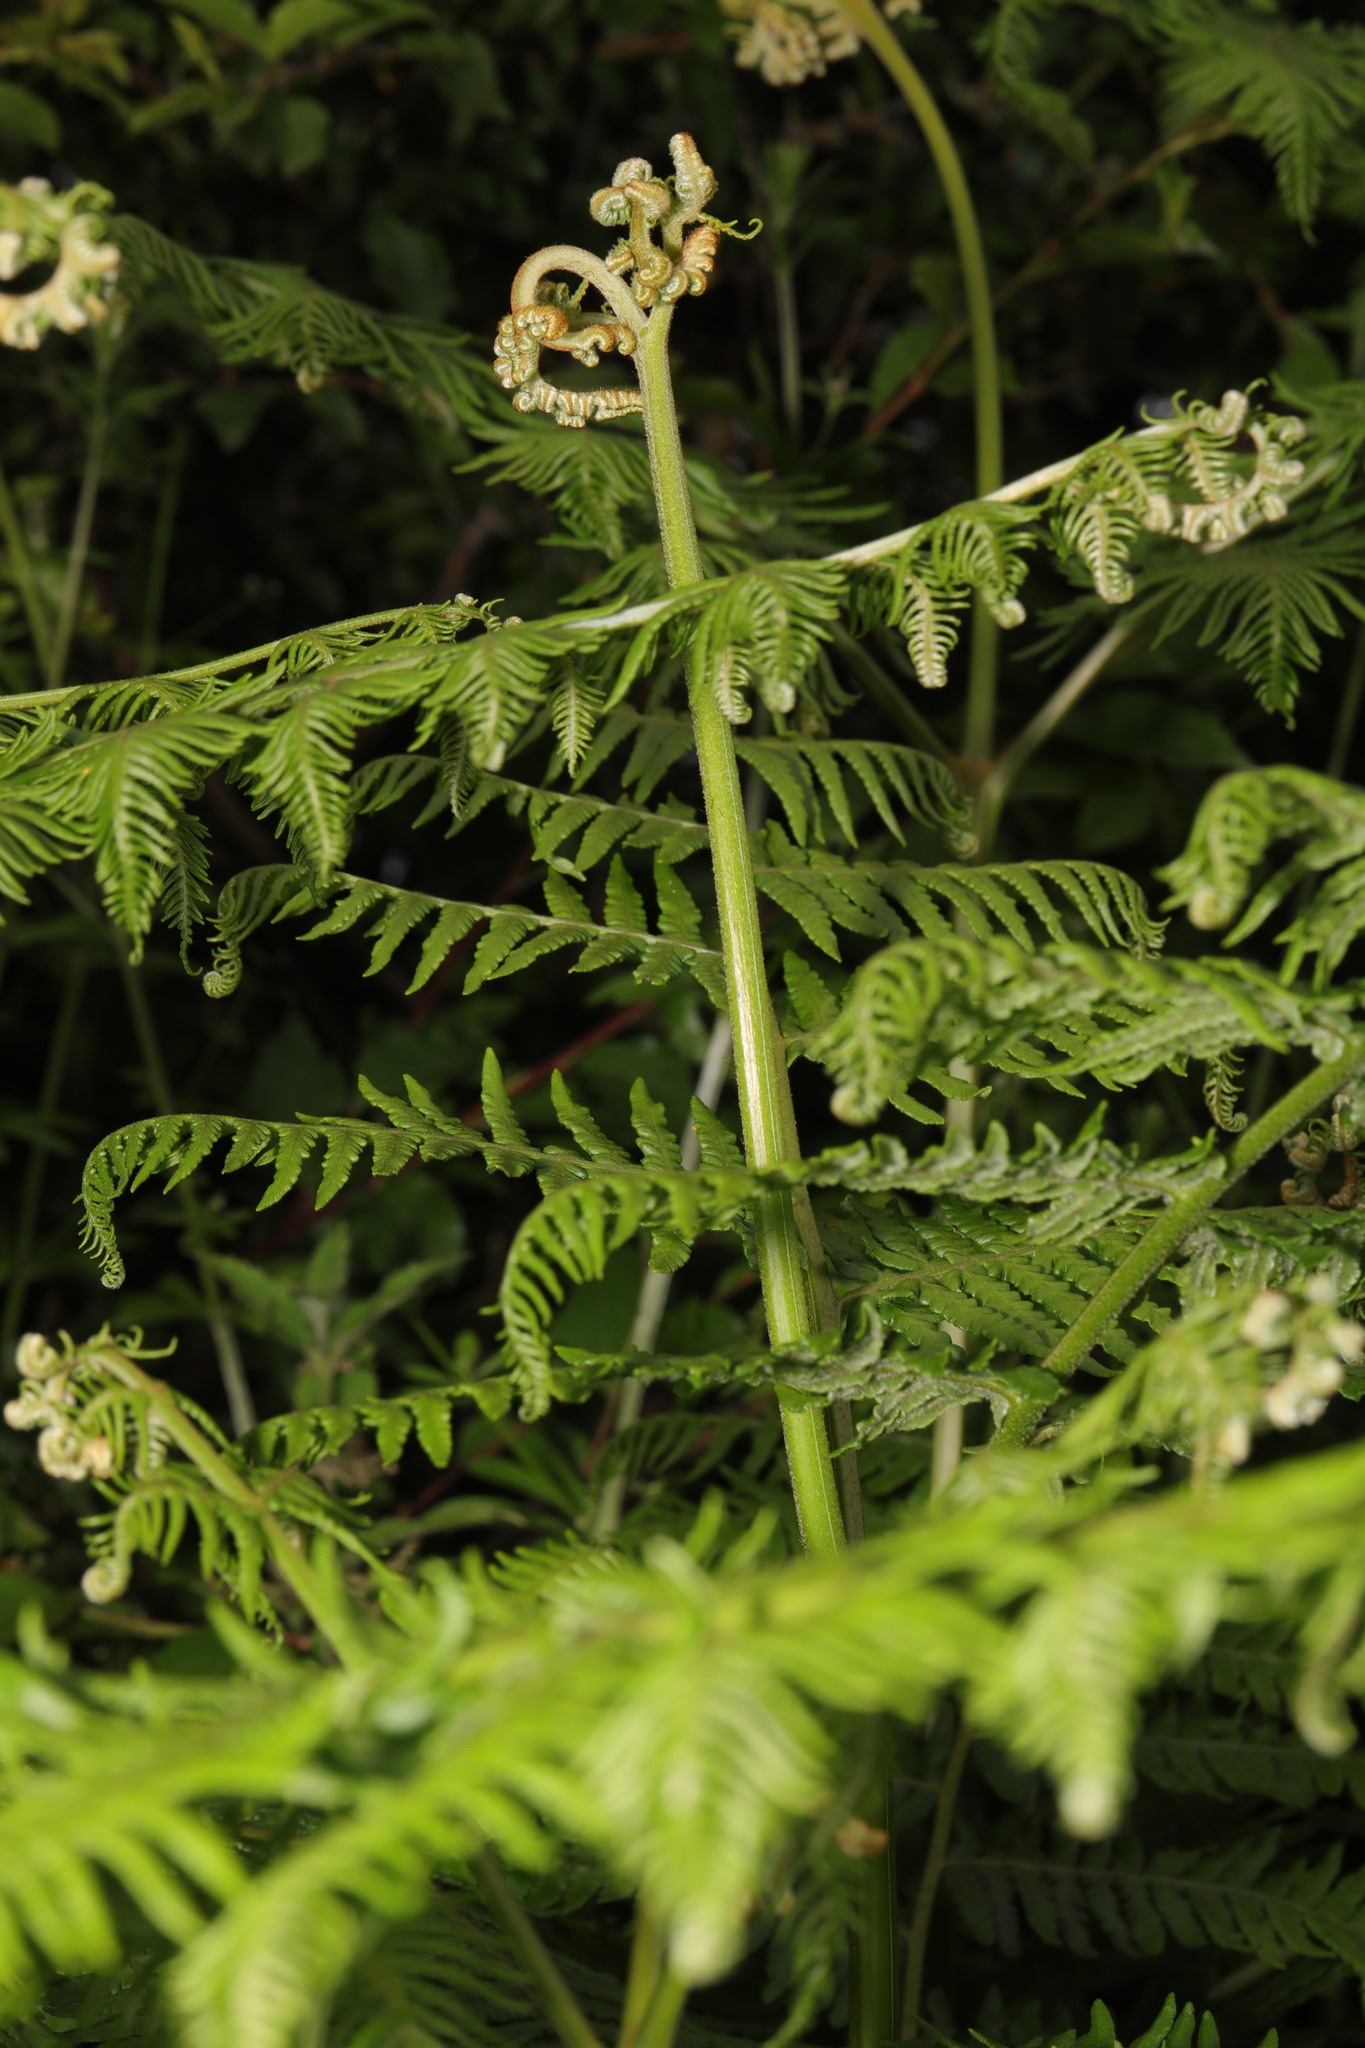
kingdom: Plantae
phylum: Tracheophyta
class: Polypodiopsida
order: Polypodiales
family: Dennstaedtiaceae
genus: Pteridium
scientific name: Pteridium aquilinum
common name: Bracken
